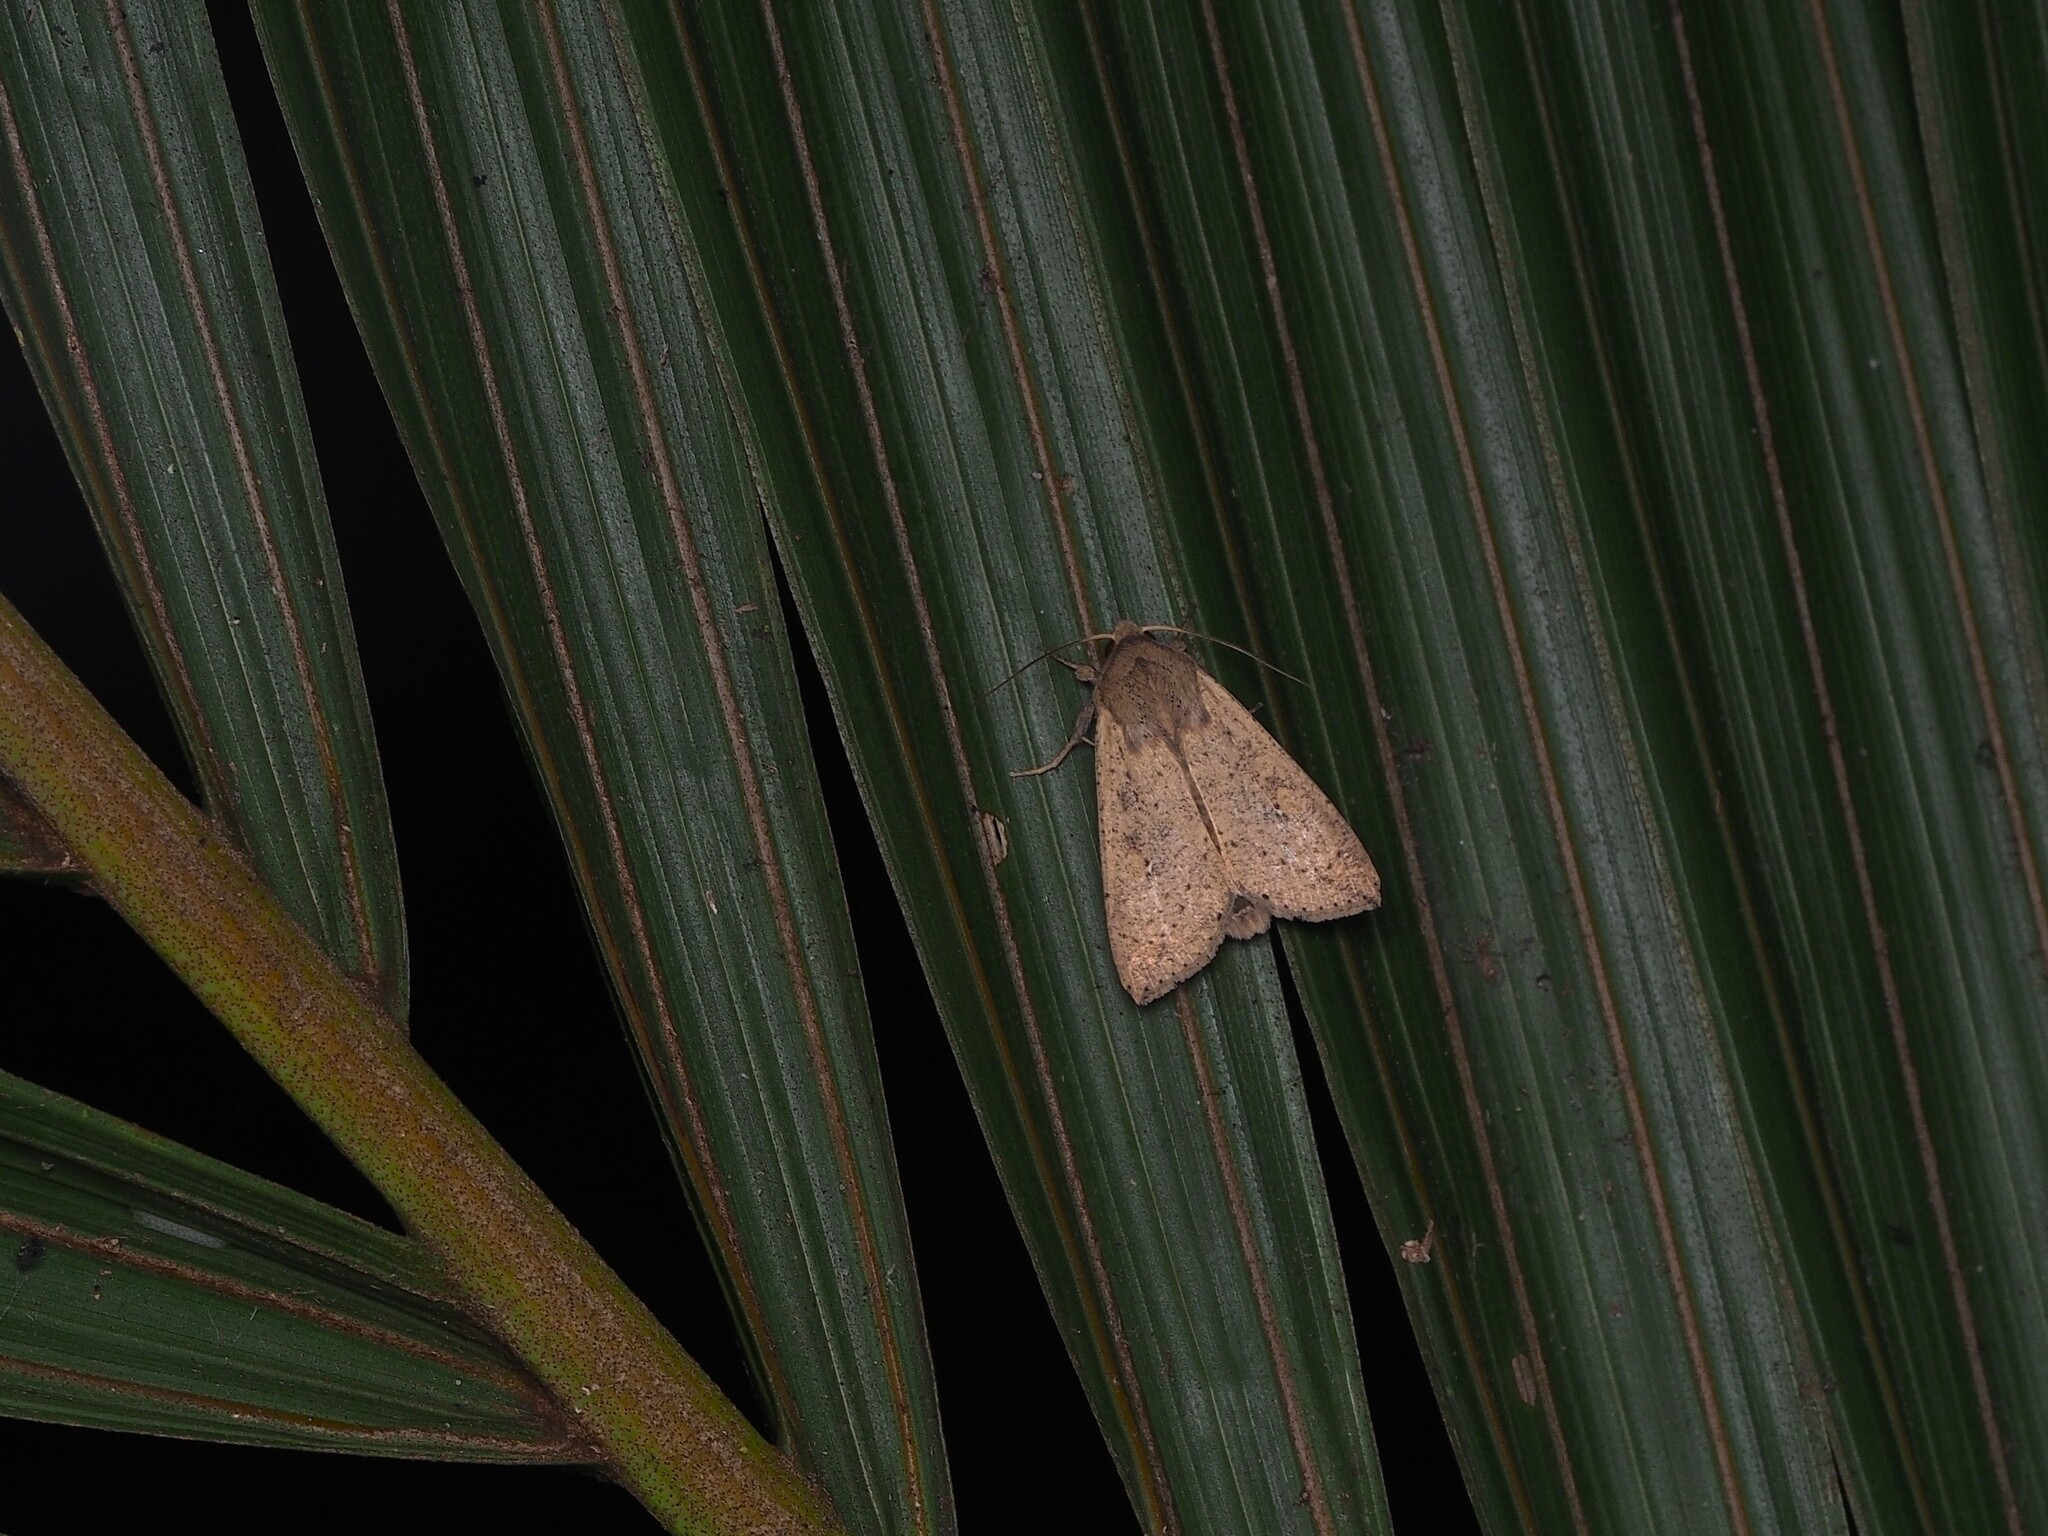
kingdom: Animalia
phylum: Arthropoda
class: Insecta
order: Lepidoptera
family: Noctuidae
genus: Mythimna
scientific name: Mythimna separata
